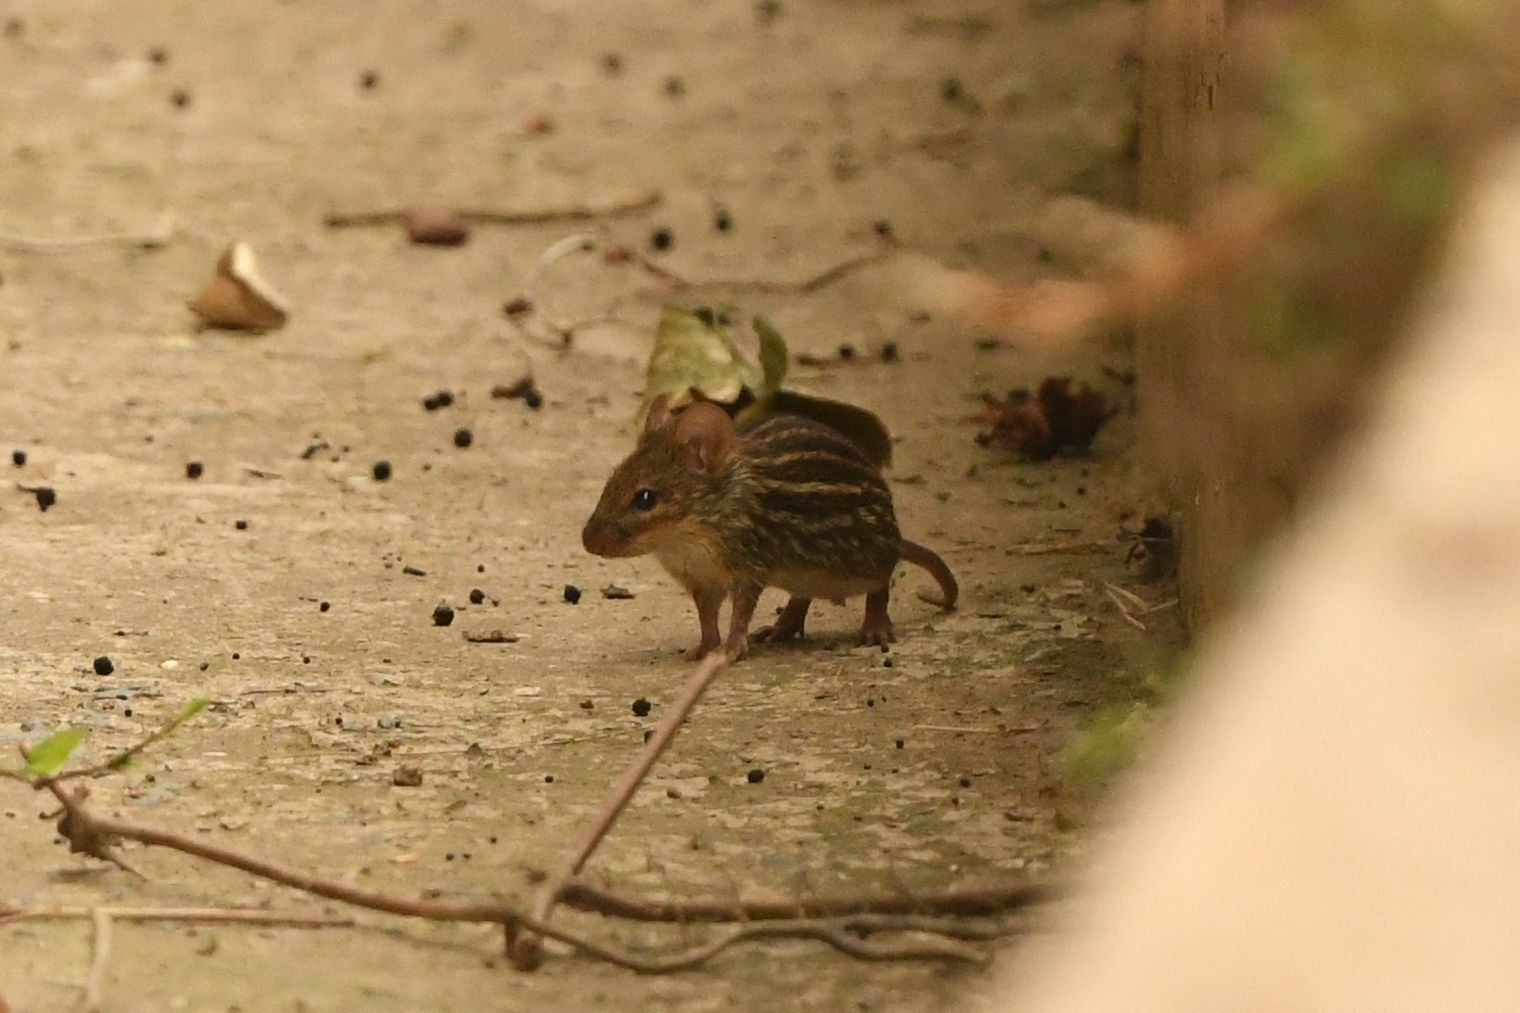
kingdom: Animalia
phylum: Chordata
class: Mammalia
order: Rodentia
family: Muridae
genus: Lemniscomys
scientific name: Lemniscomys striatus
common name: Typical lemniscomys
